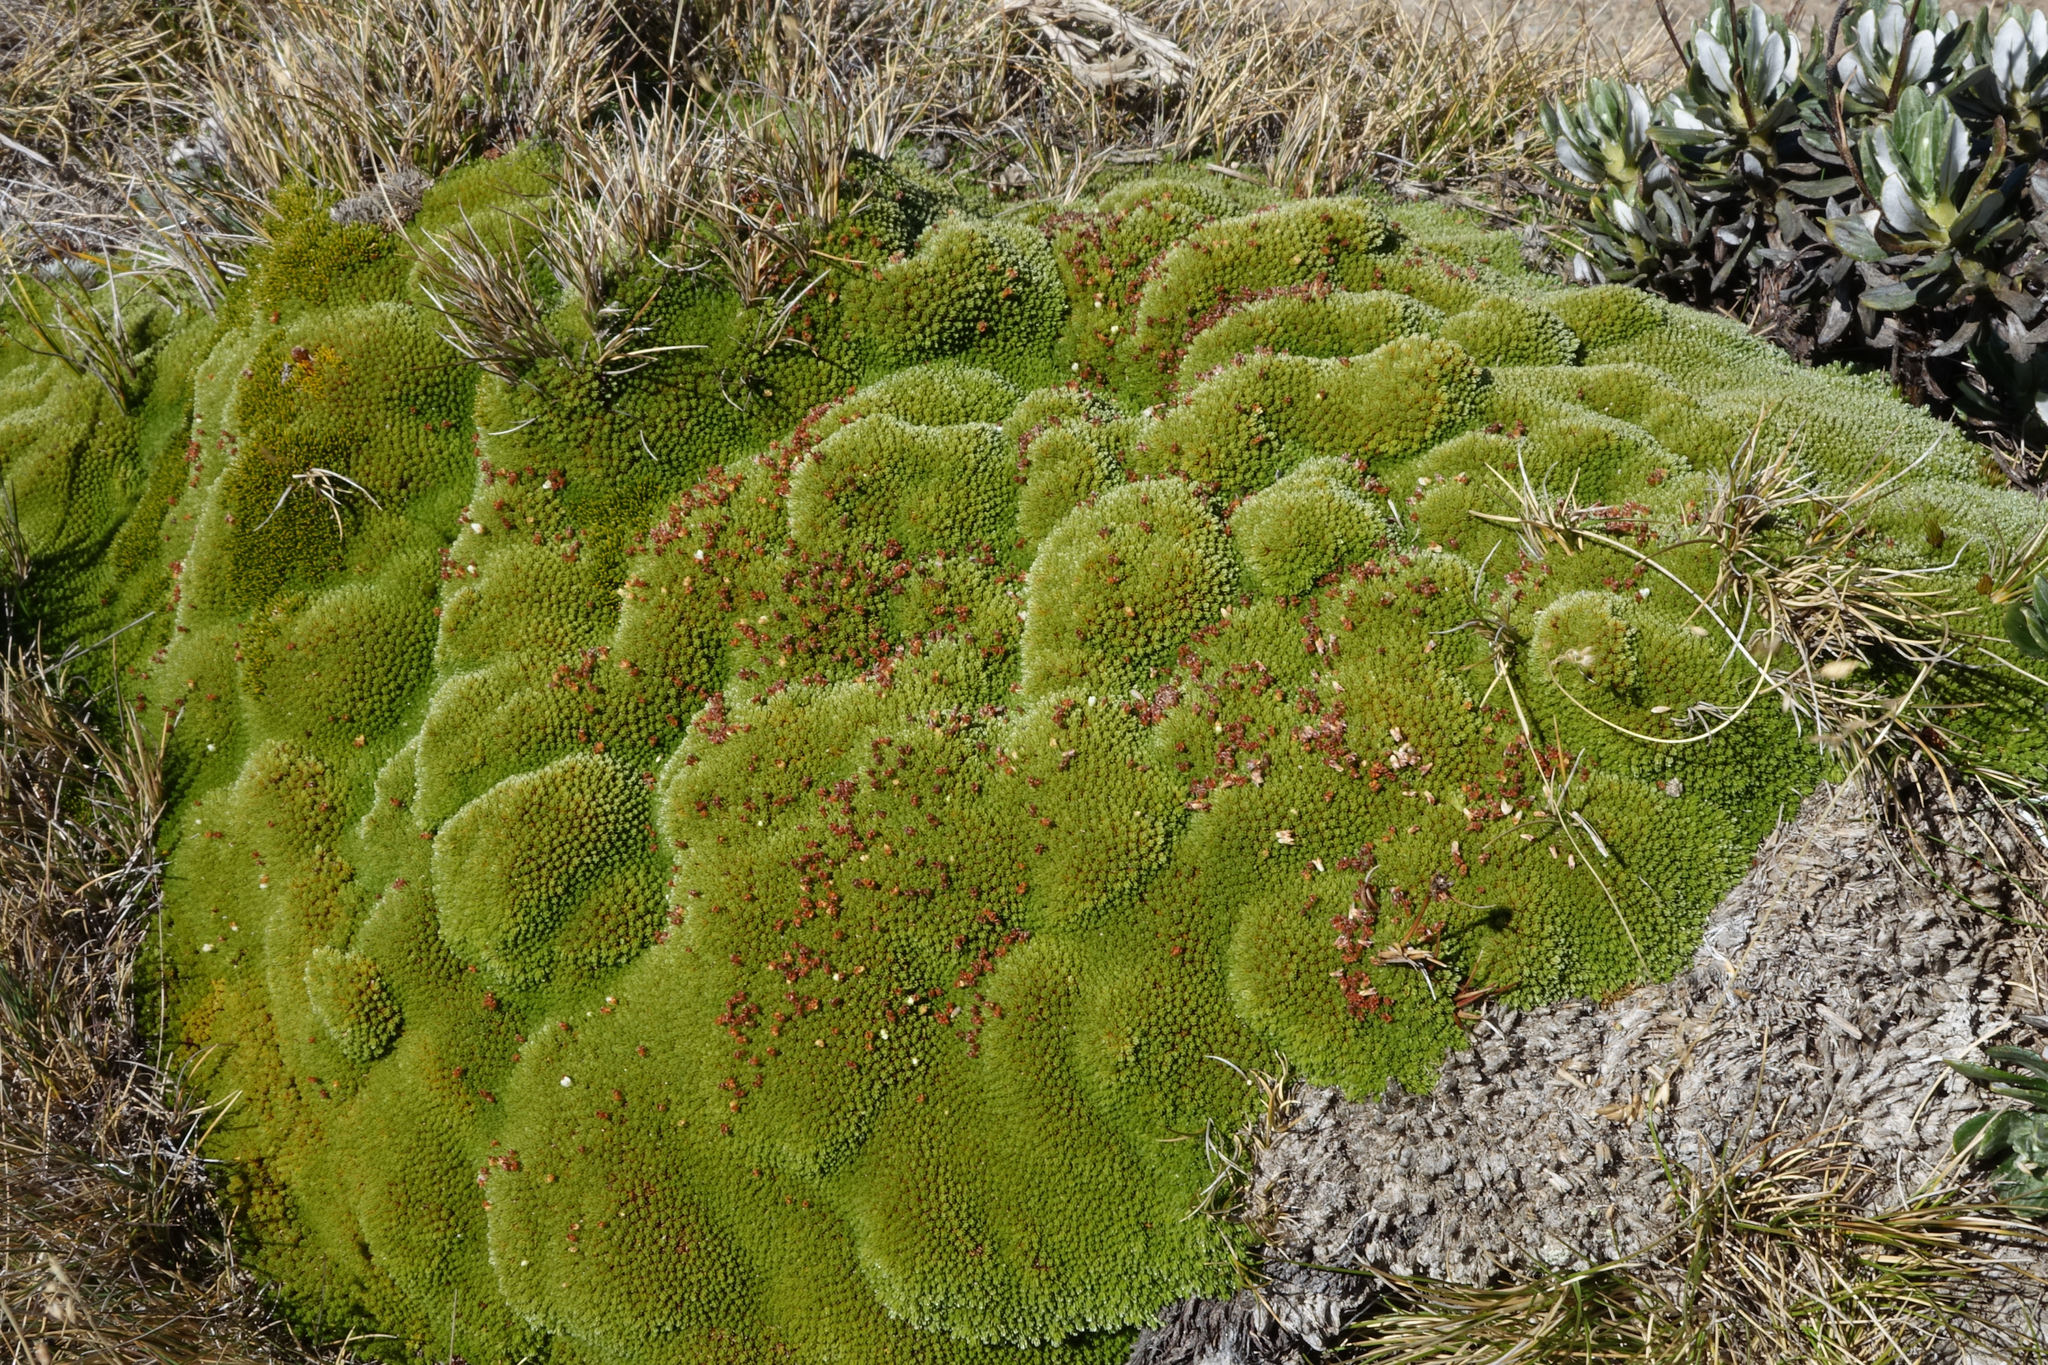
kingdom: Plantae
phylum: Tracheophyta
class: Magnoliopsida
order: Malvales
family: Thymelaeaceae
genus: Kelleria
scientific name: Kelleria childii
